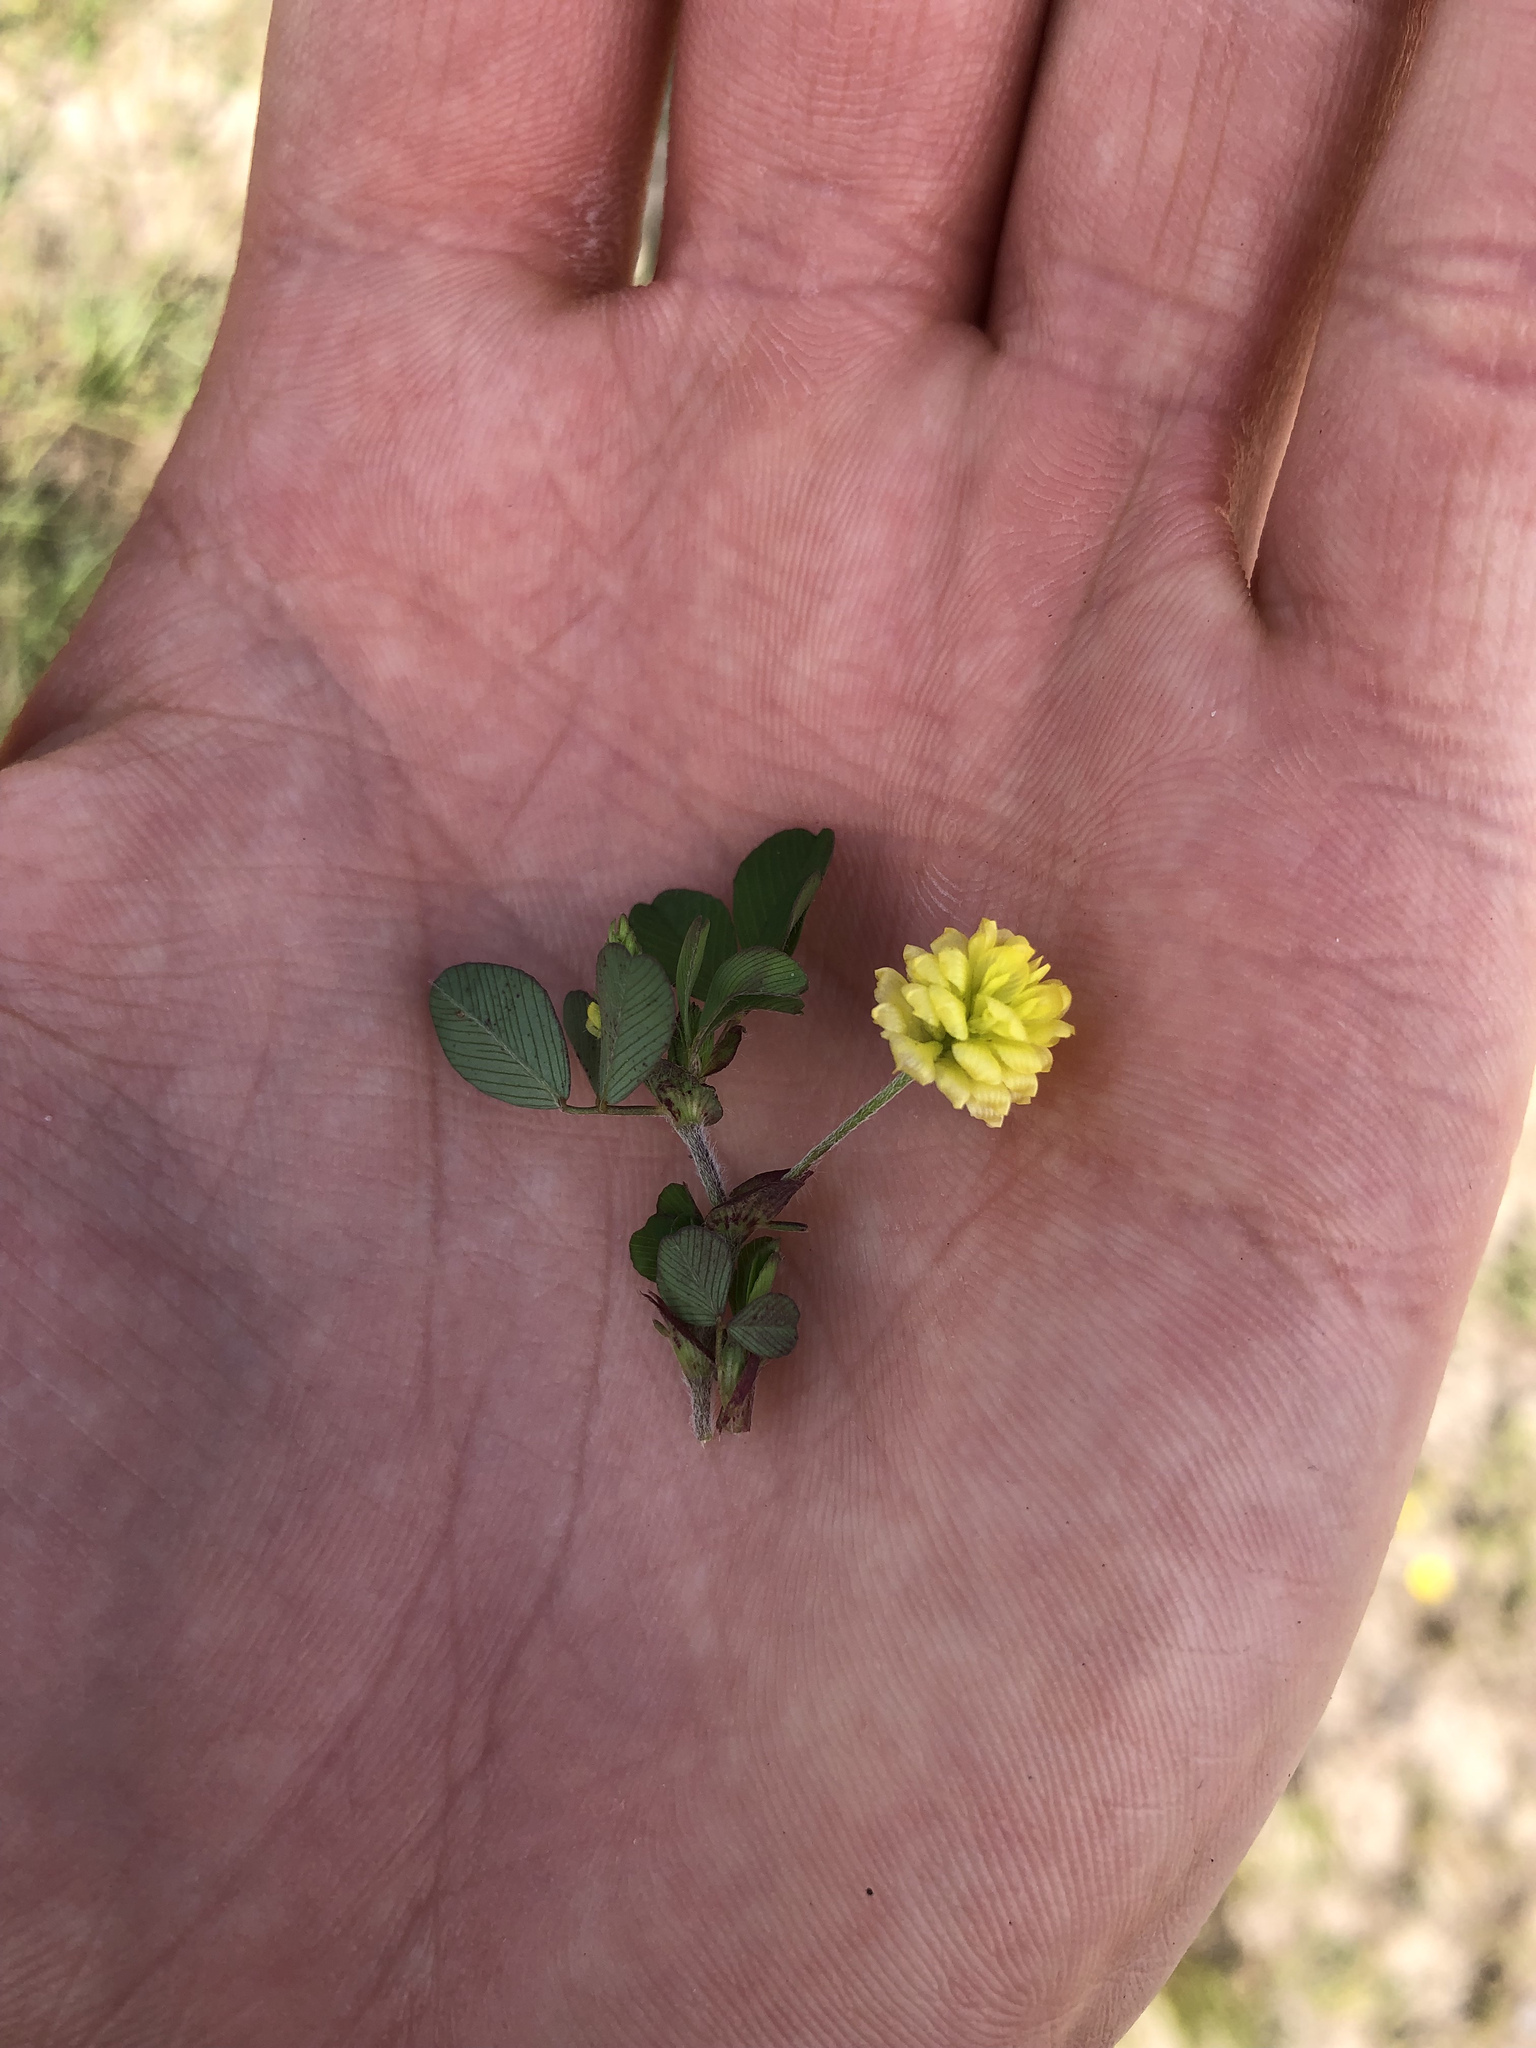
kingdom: Plantae
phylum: Tracheophyta
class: Magnoliopsida
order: Fabales
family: Fabaceae
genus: Trifolium
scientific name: Trifolium campestre
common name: Field clover
